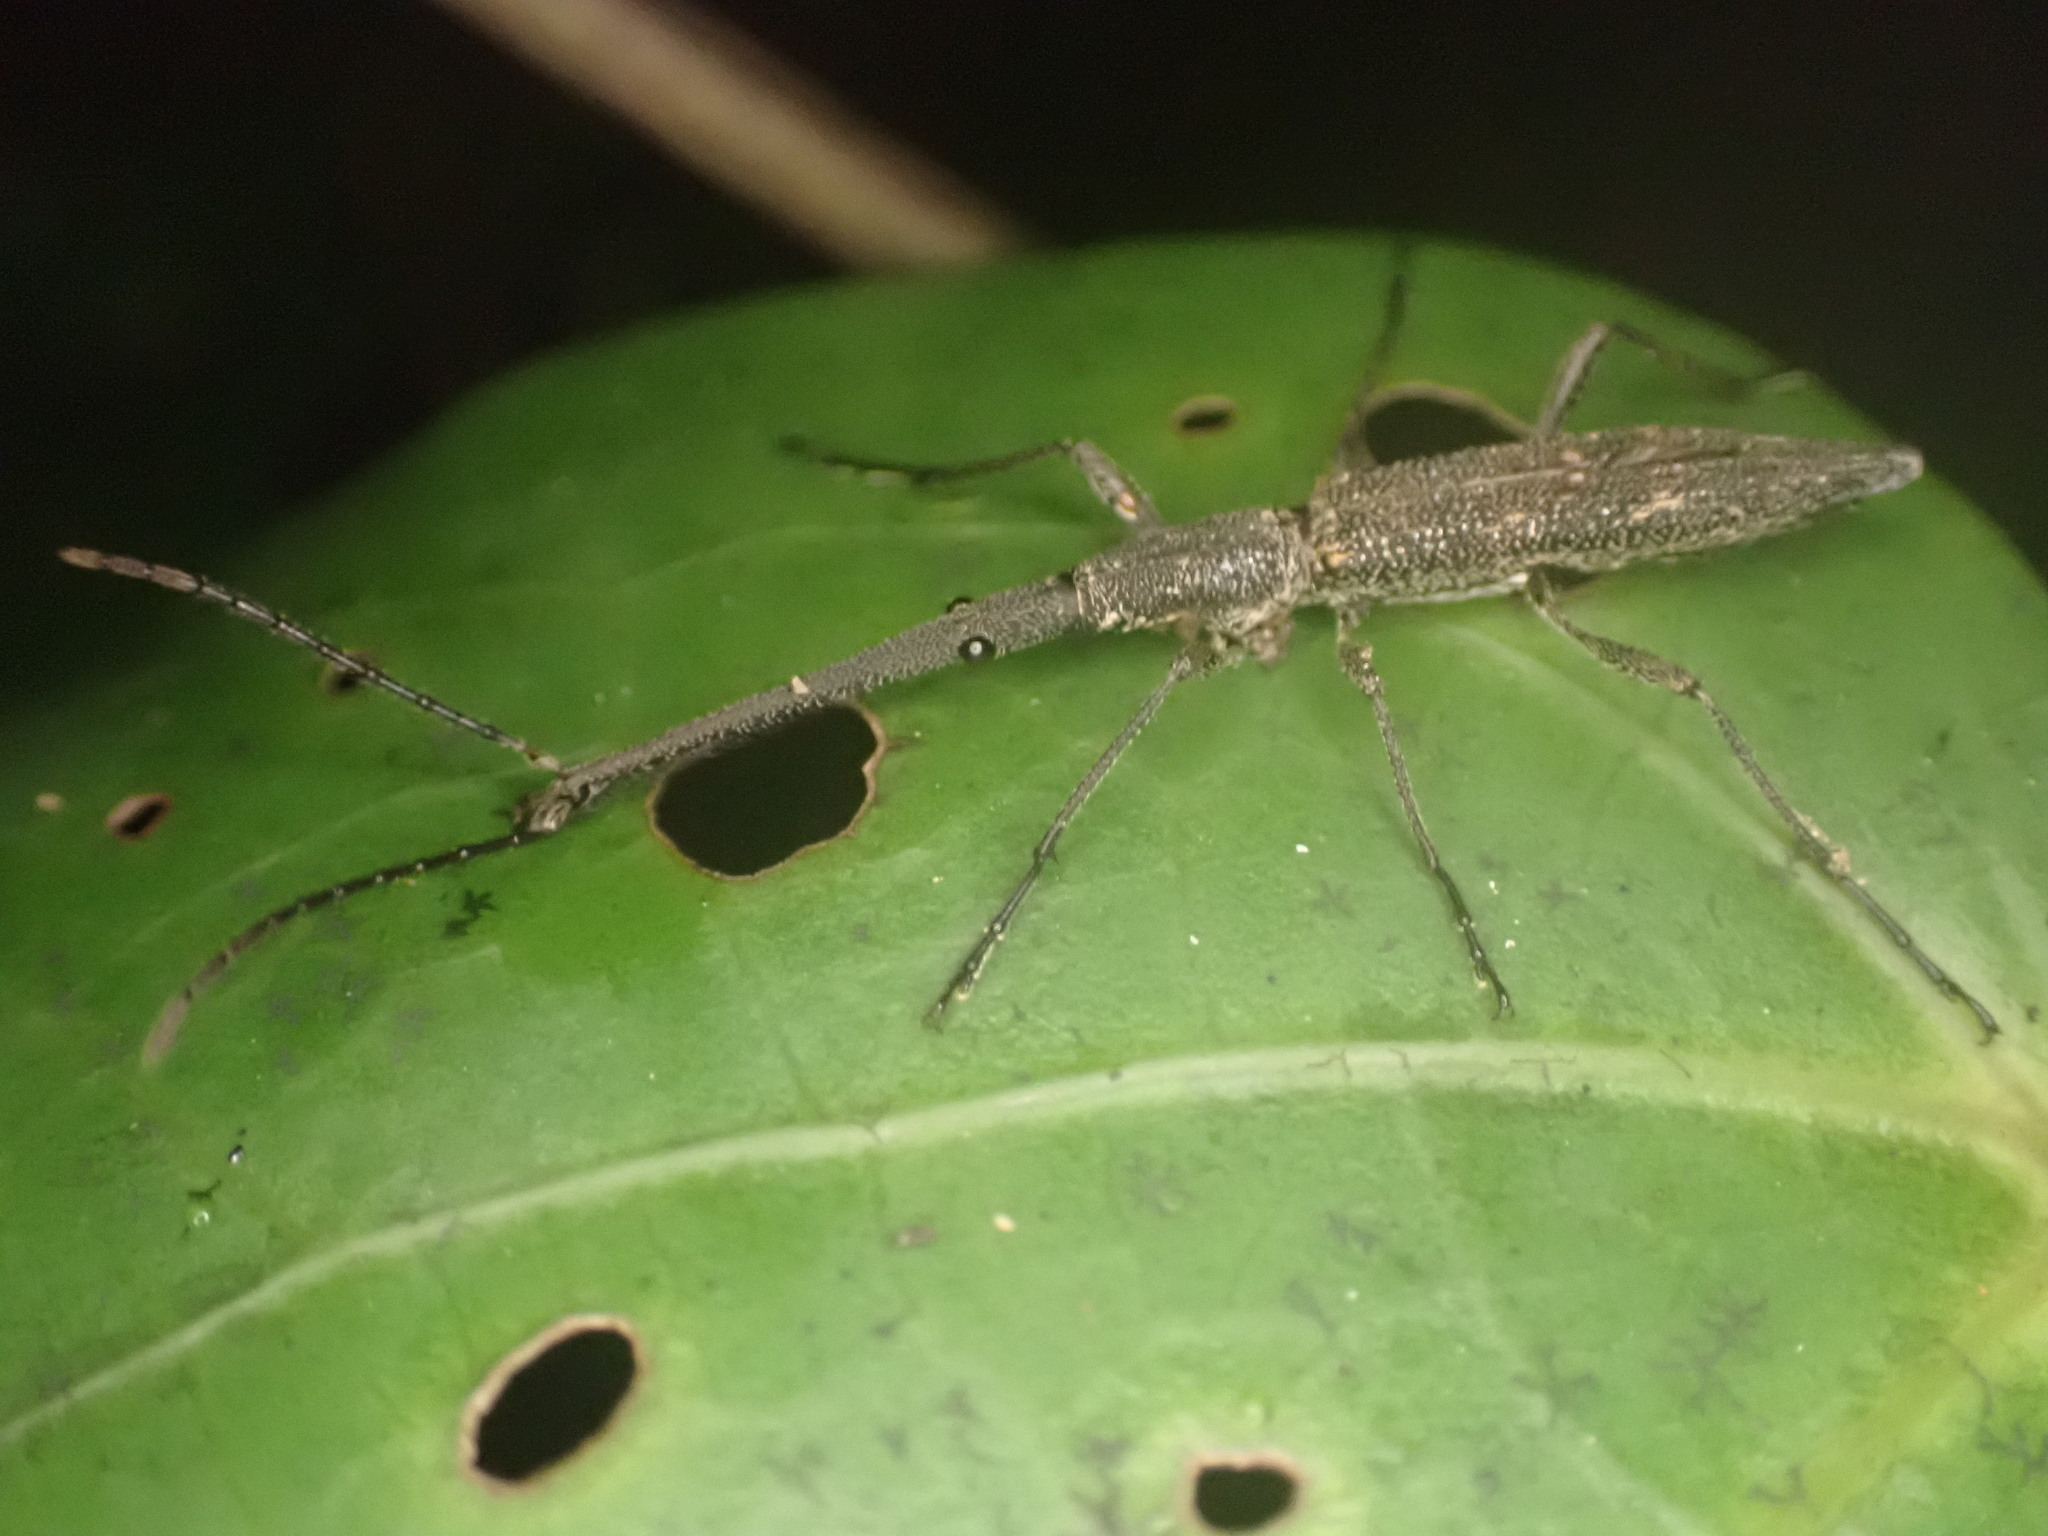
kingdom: Animalia
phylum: Arthropoda
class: Insecta
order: Coleoptera
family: Brentidae
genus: Lasiorhynchus
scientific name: Lasiorhynchus barbicornis
